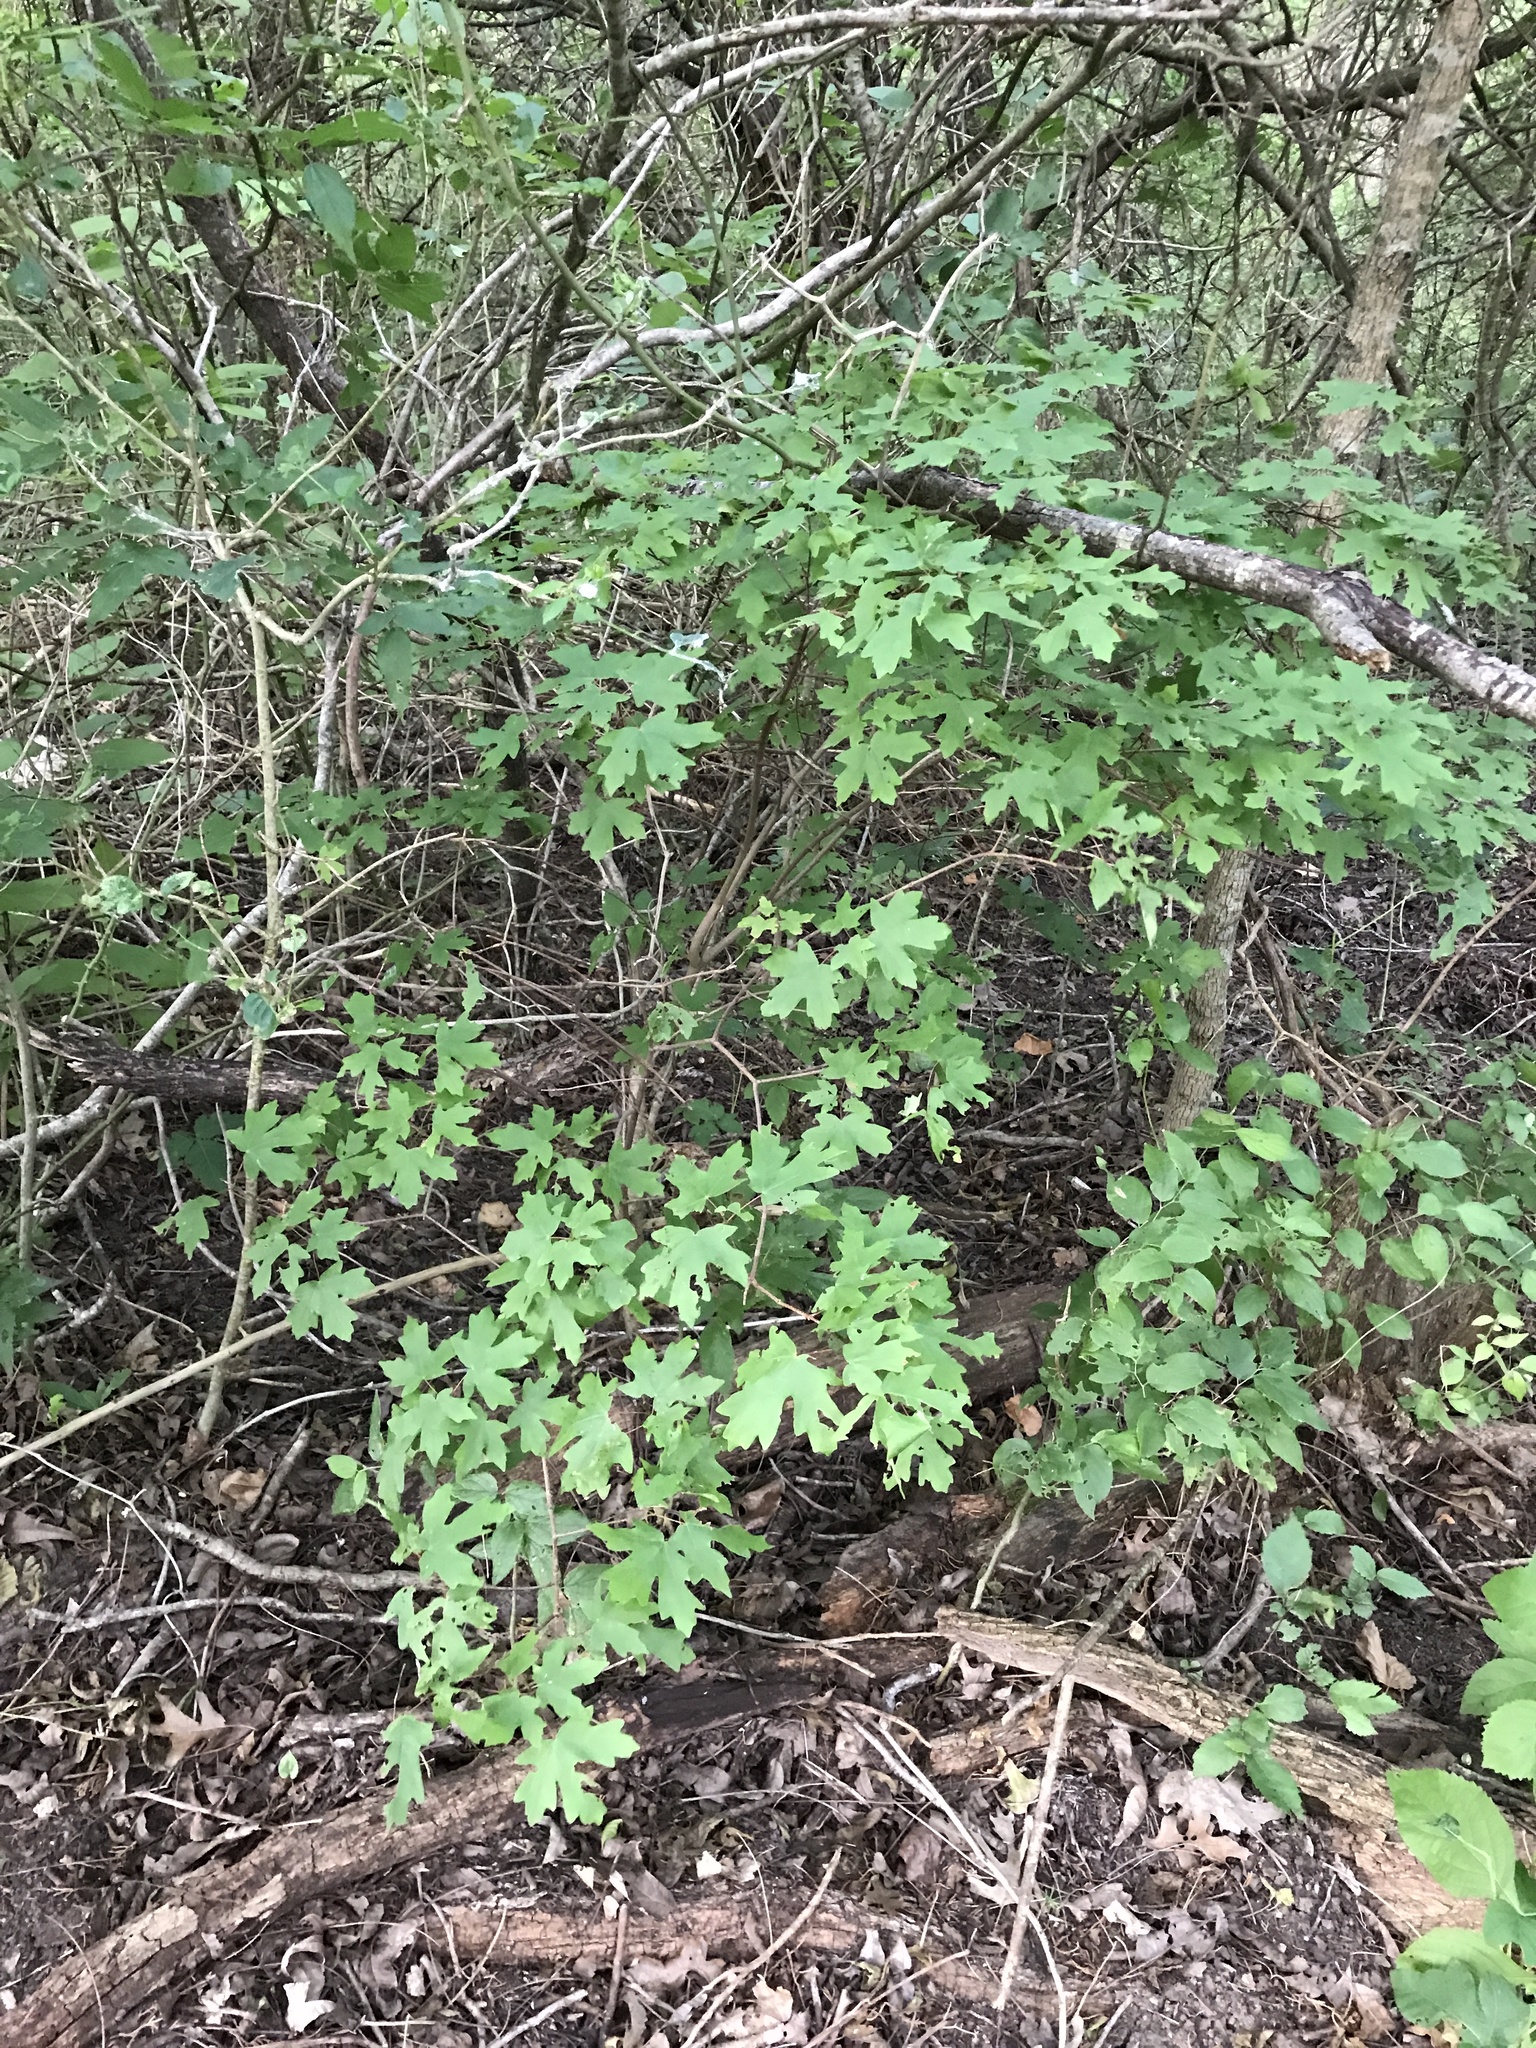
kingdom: Plantae
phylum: Tracheophyta
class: Magnoliopsida
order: Sapindales
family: Sapindaceae
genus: Acer
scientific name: Acer grandidentatum
